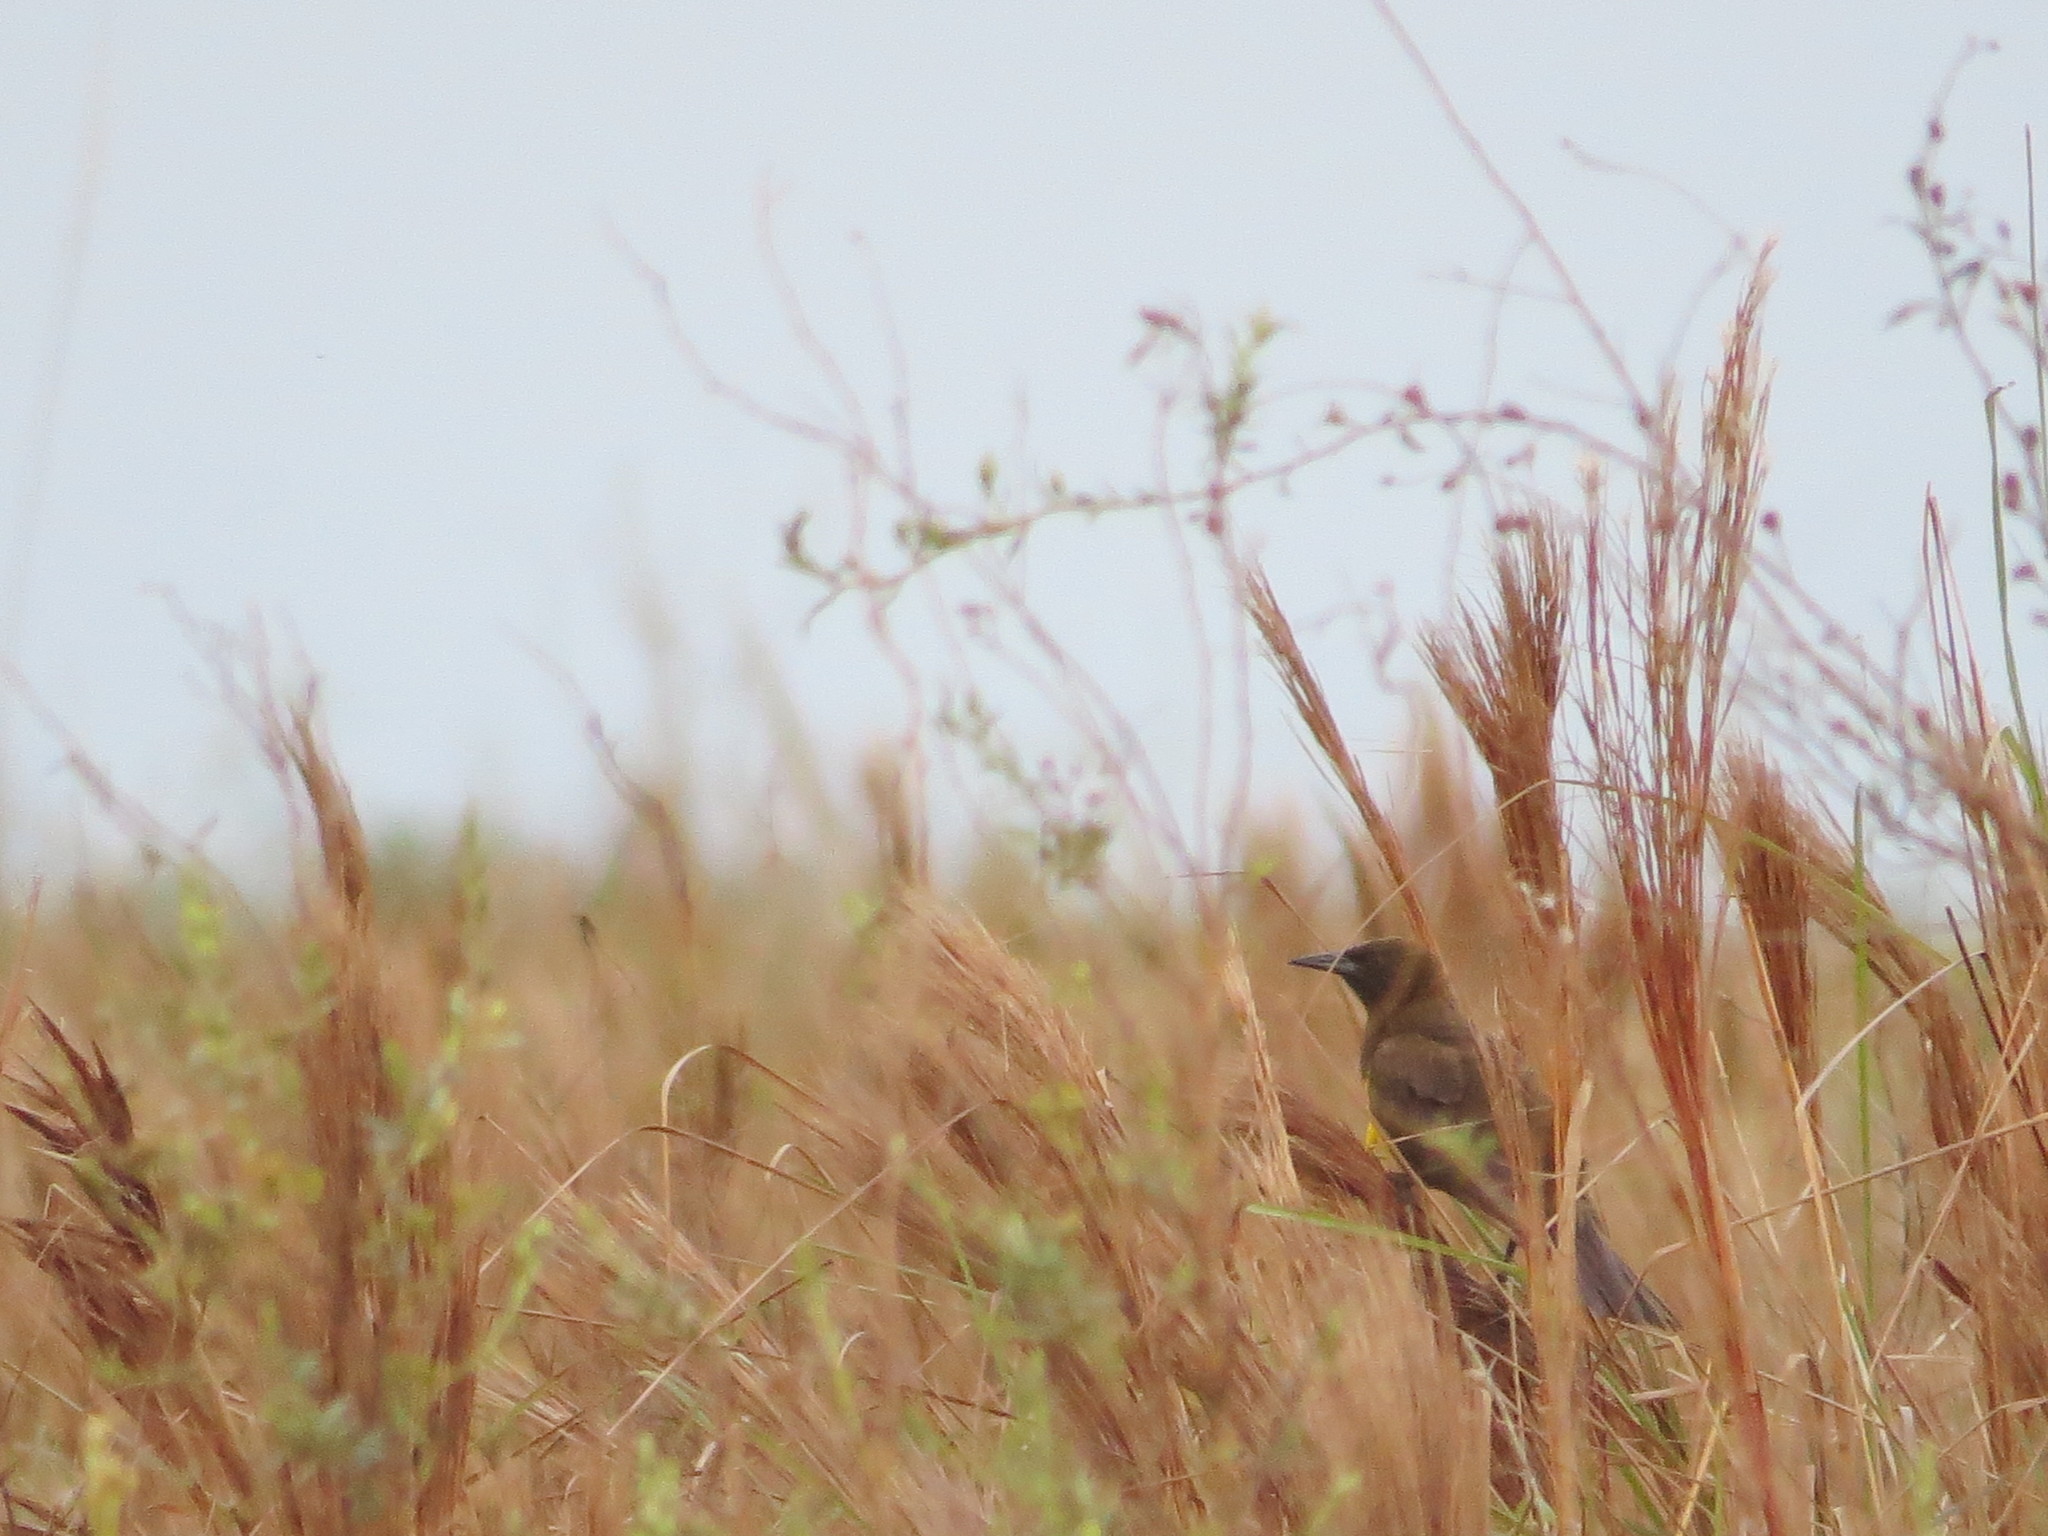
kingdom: Animalia
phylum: Chordata
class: Aves
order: Passeriformes
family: Icteridae
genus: Pseudoleistes
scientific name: Pseudoleistes guirahuro
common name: Yellow-rumped marshbird
